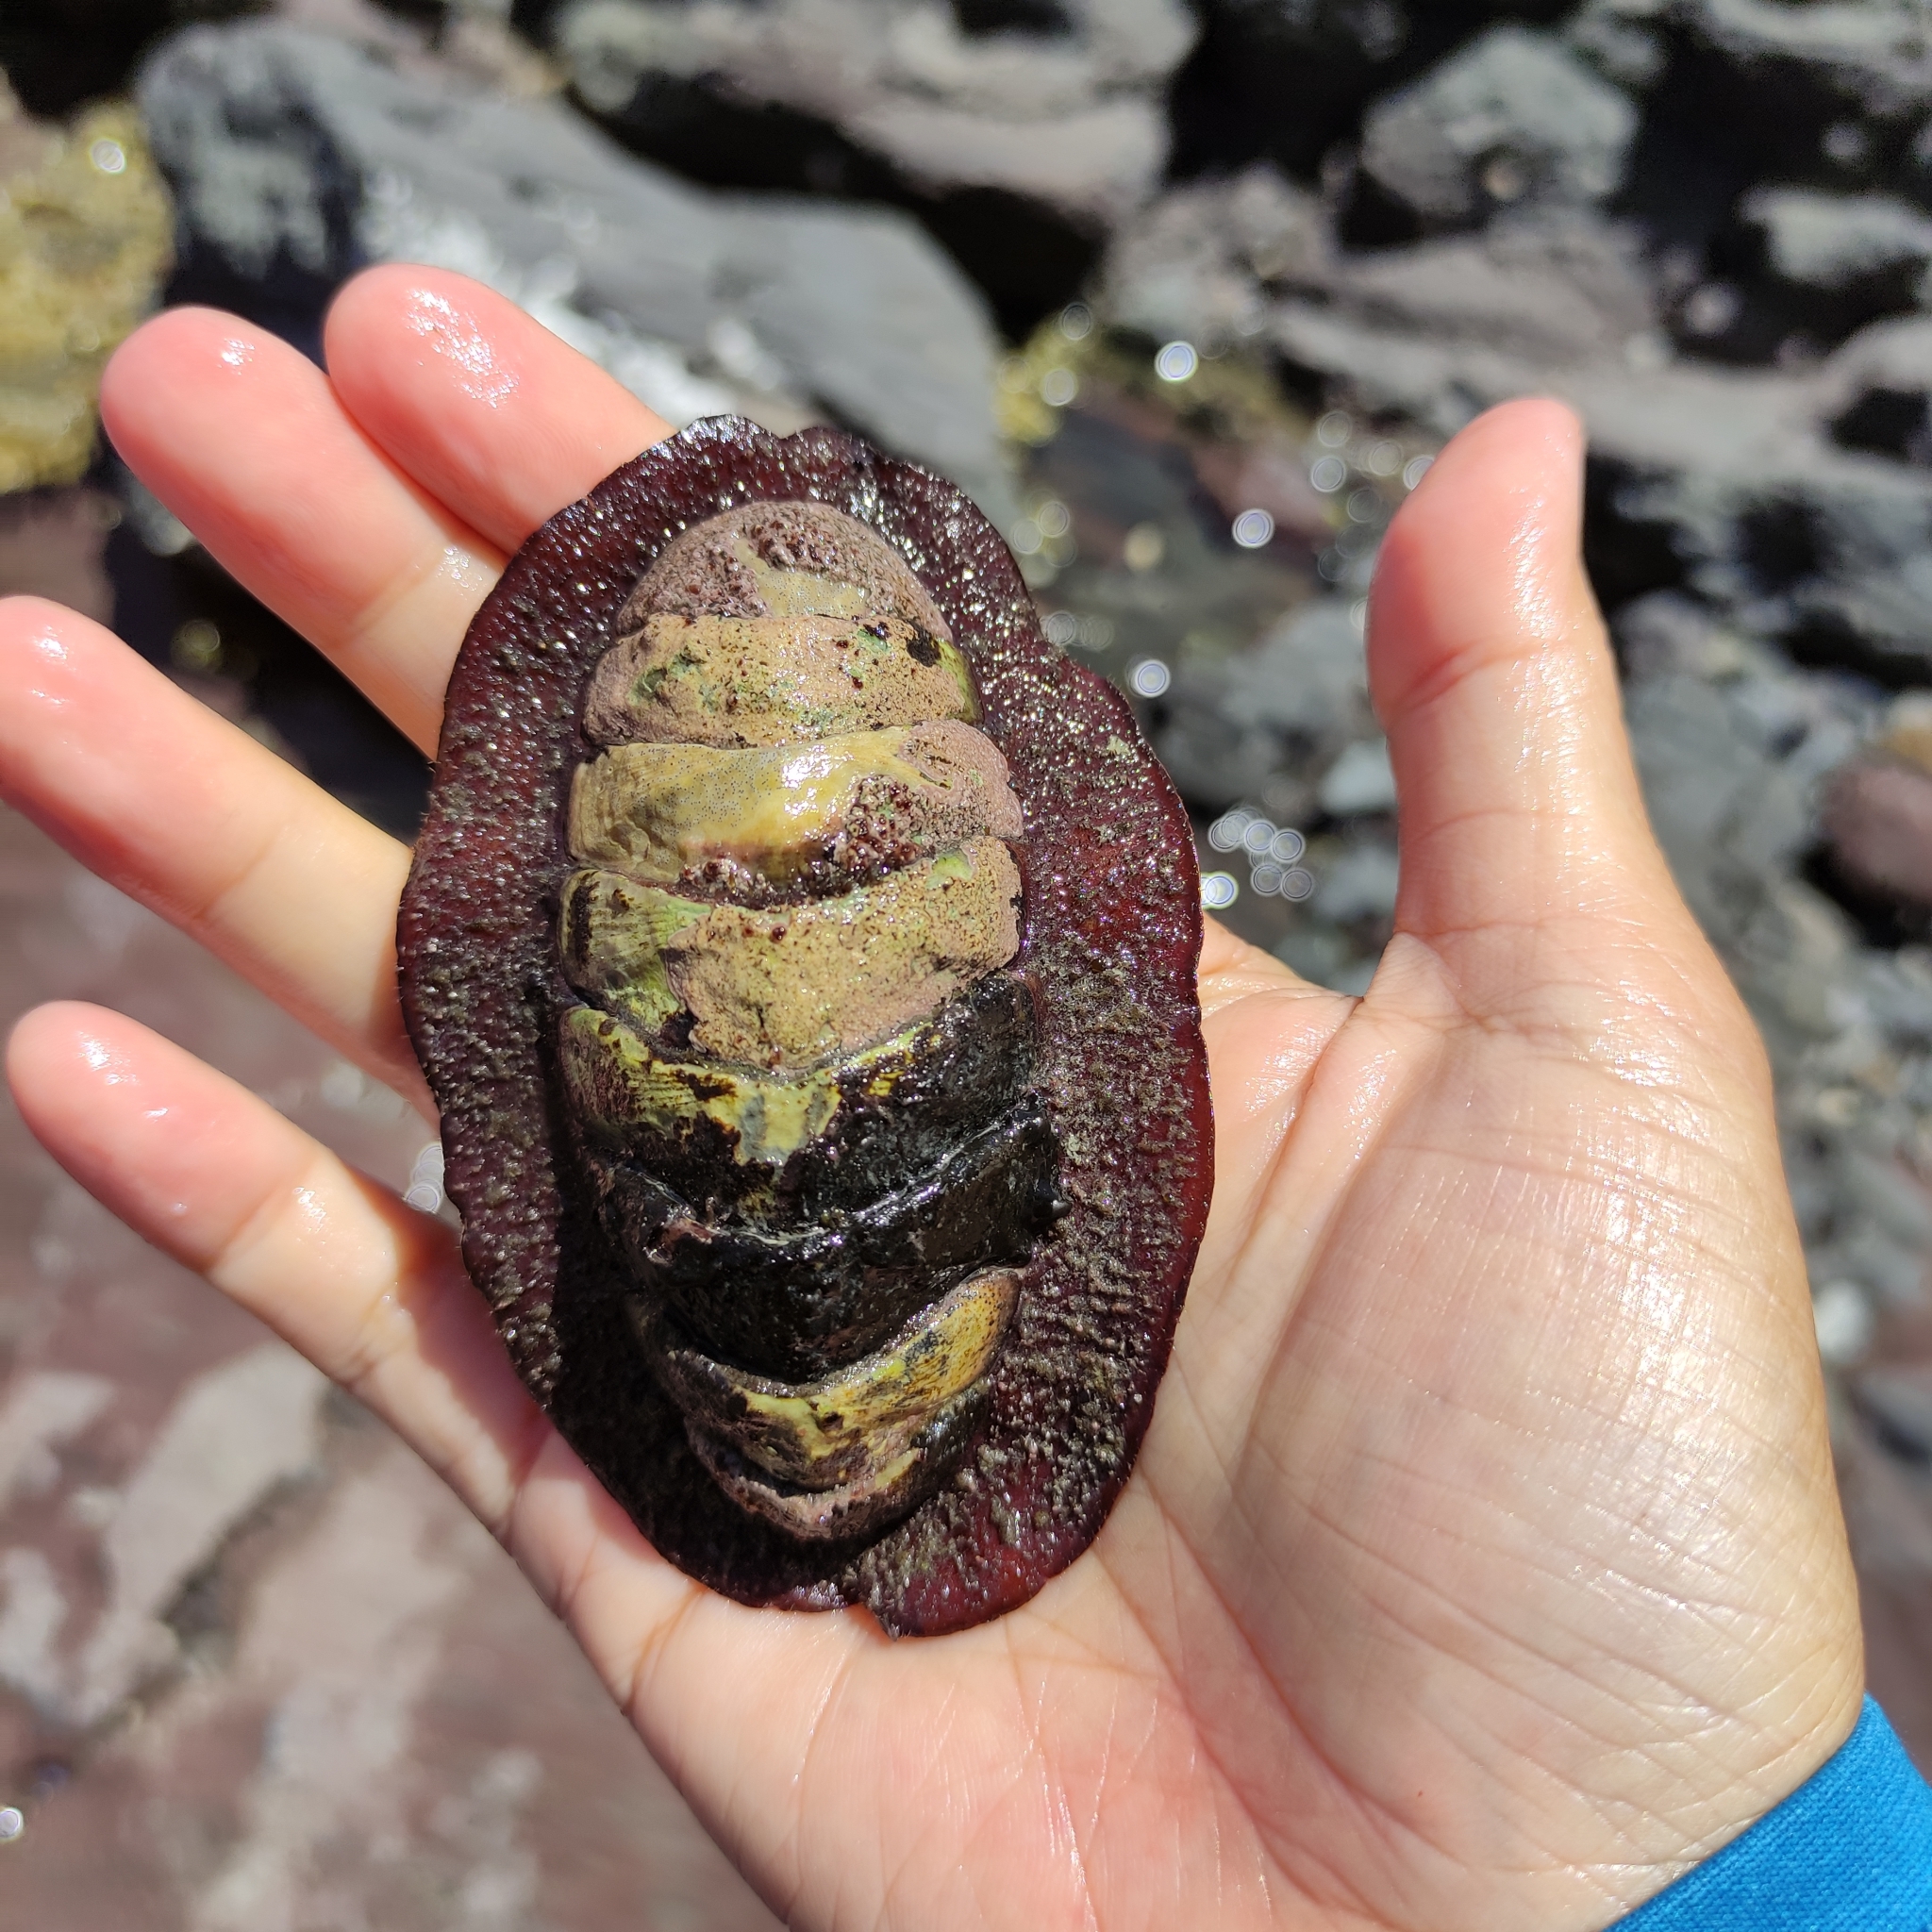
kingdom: Animalia
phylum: Mollusca
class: Polyplacophora
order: Callochitonida
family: Callochitonidae
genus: Eudoxochiton
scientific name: Eudoxochiton nobilis
